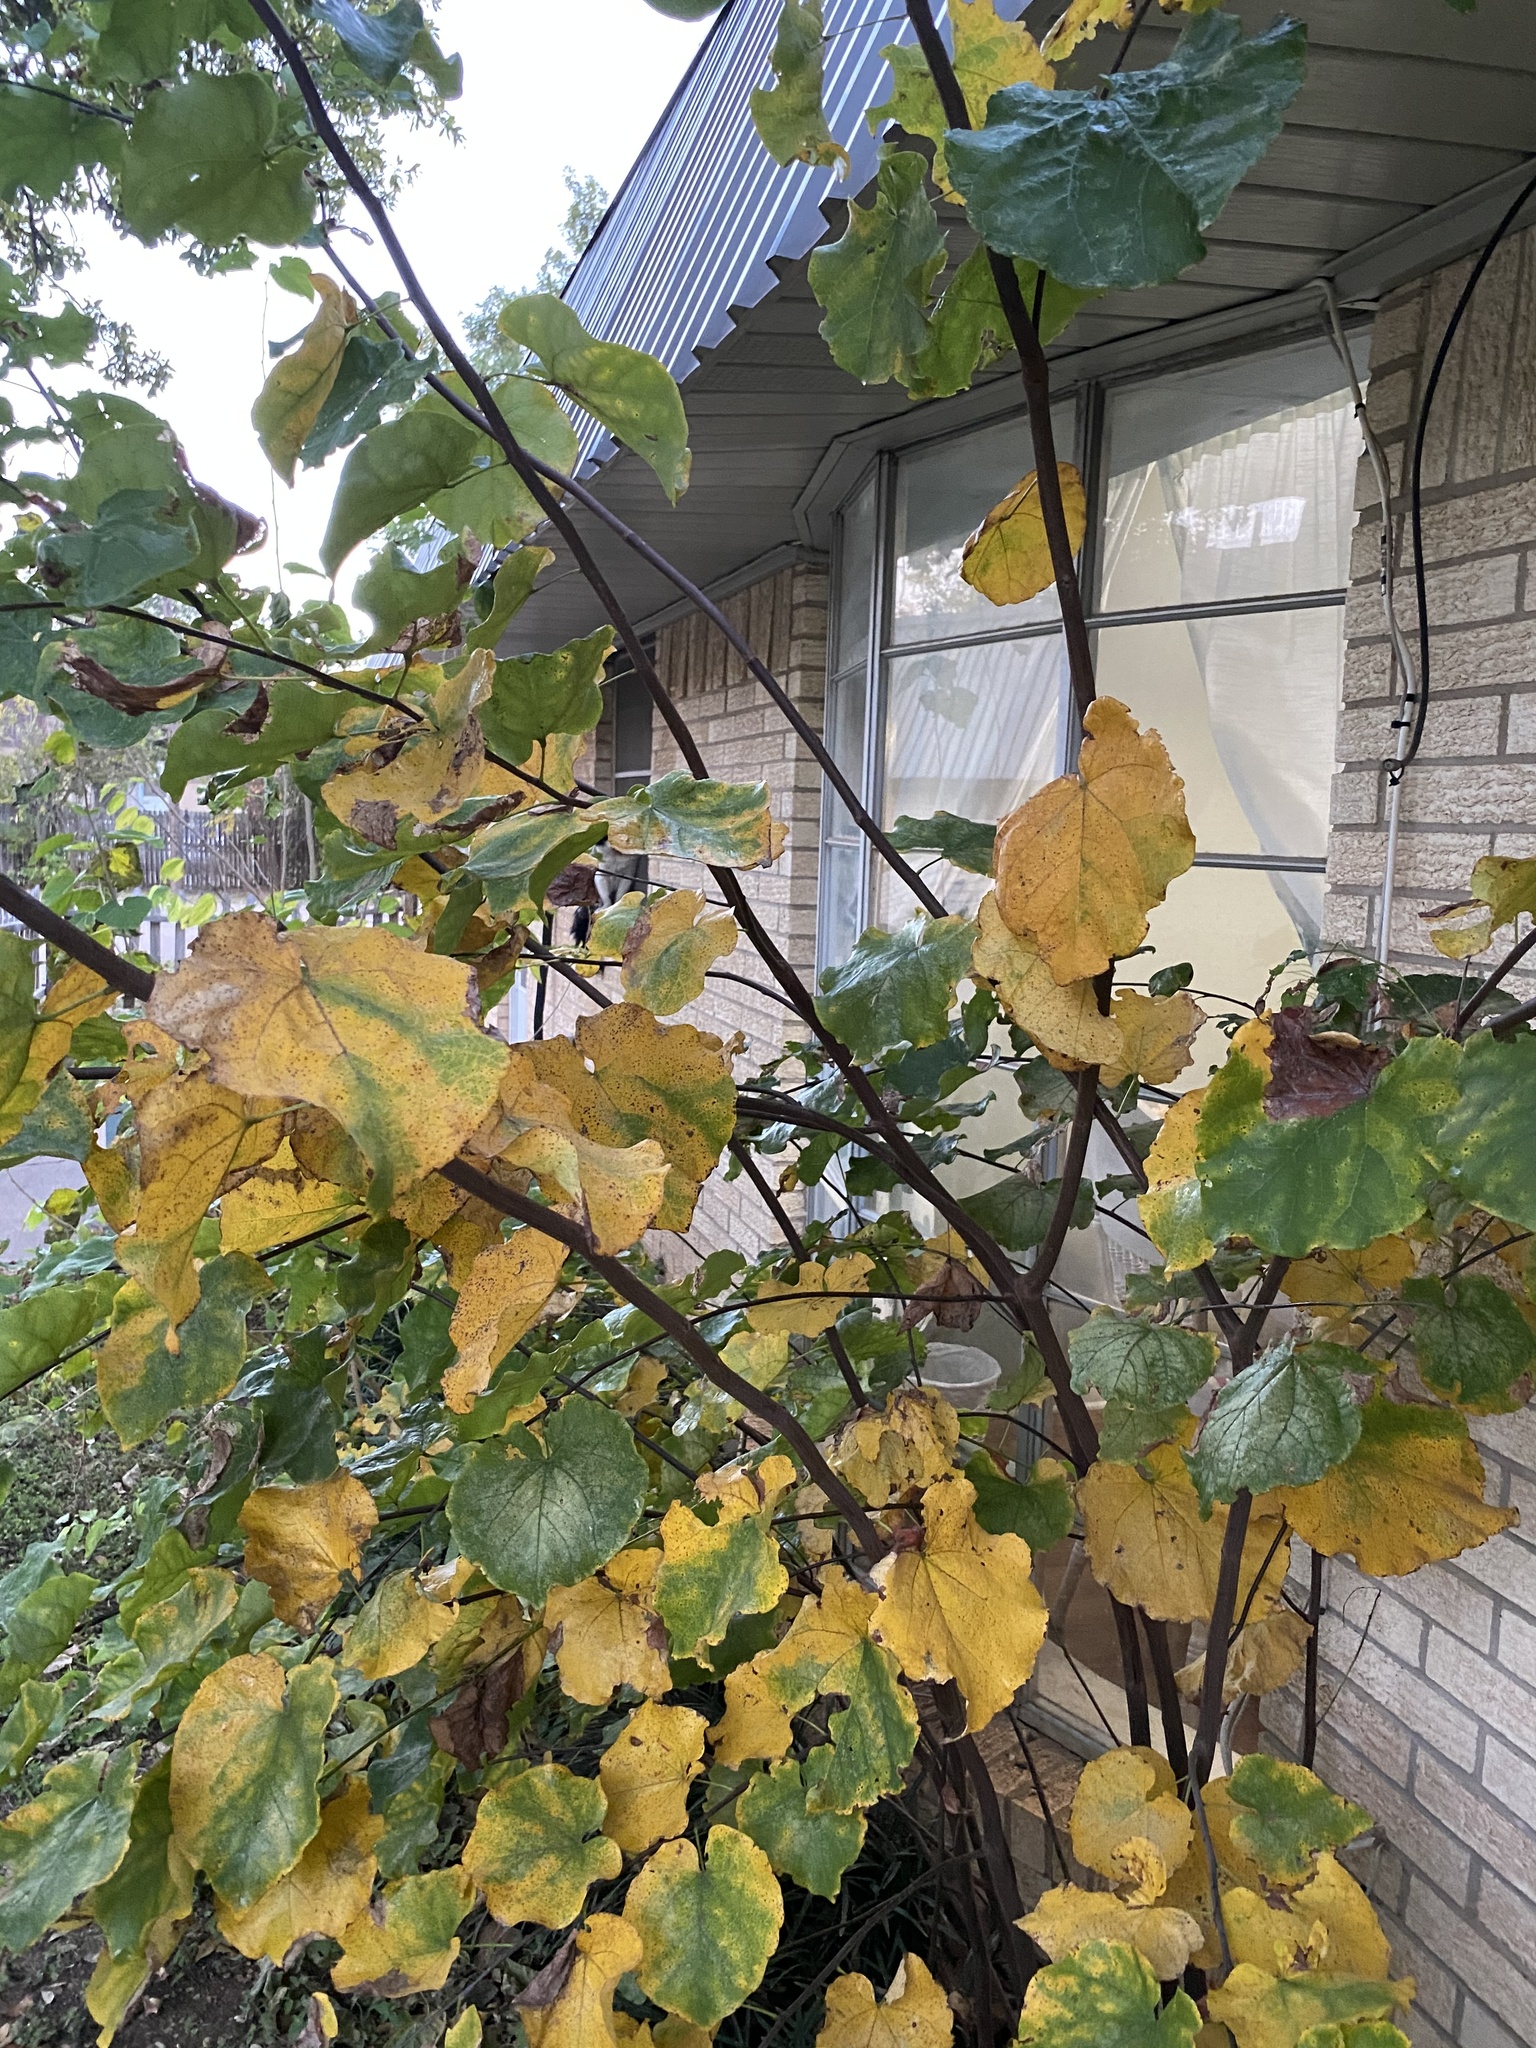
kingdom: Plantae
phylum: Tracheophyta
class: Magnoliopsida
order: Fabales
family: Fabaceae
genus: Cercis
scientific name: Cercis canadensis
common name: Eastern redbud
